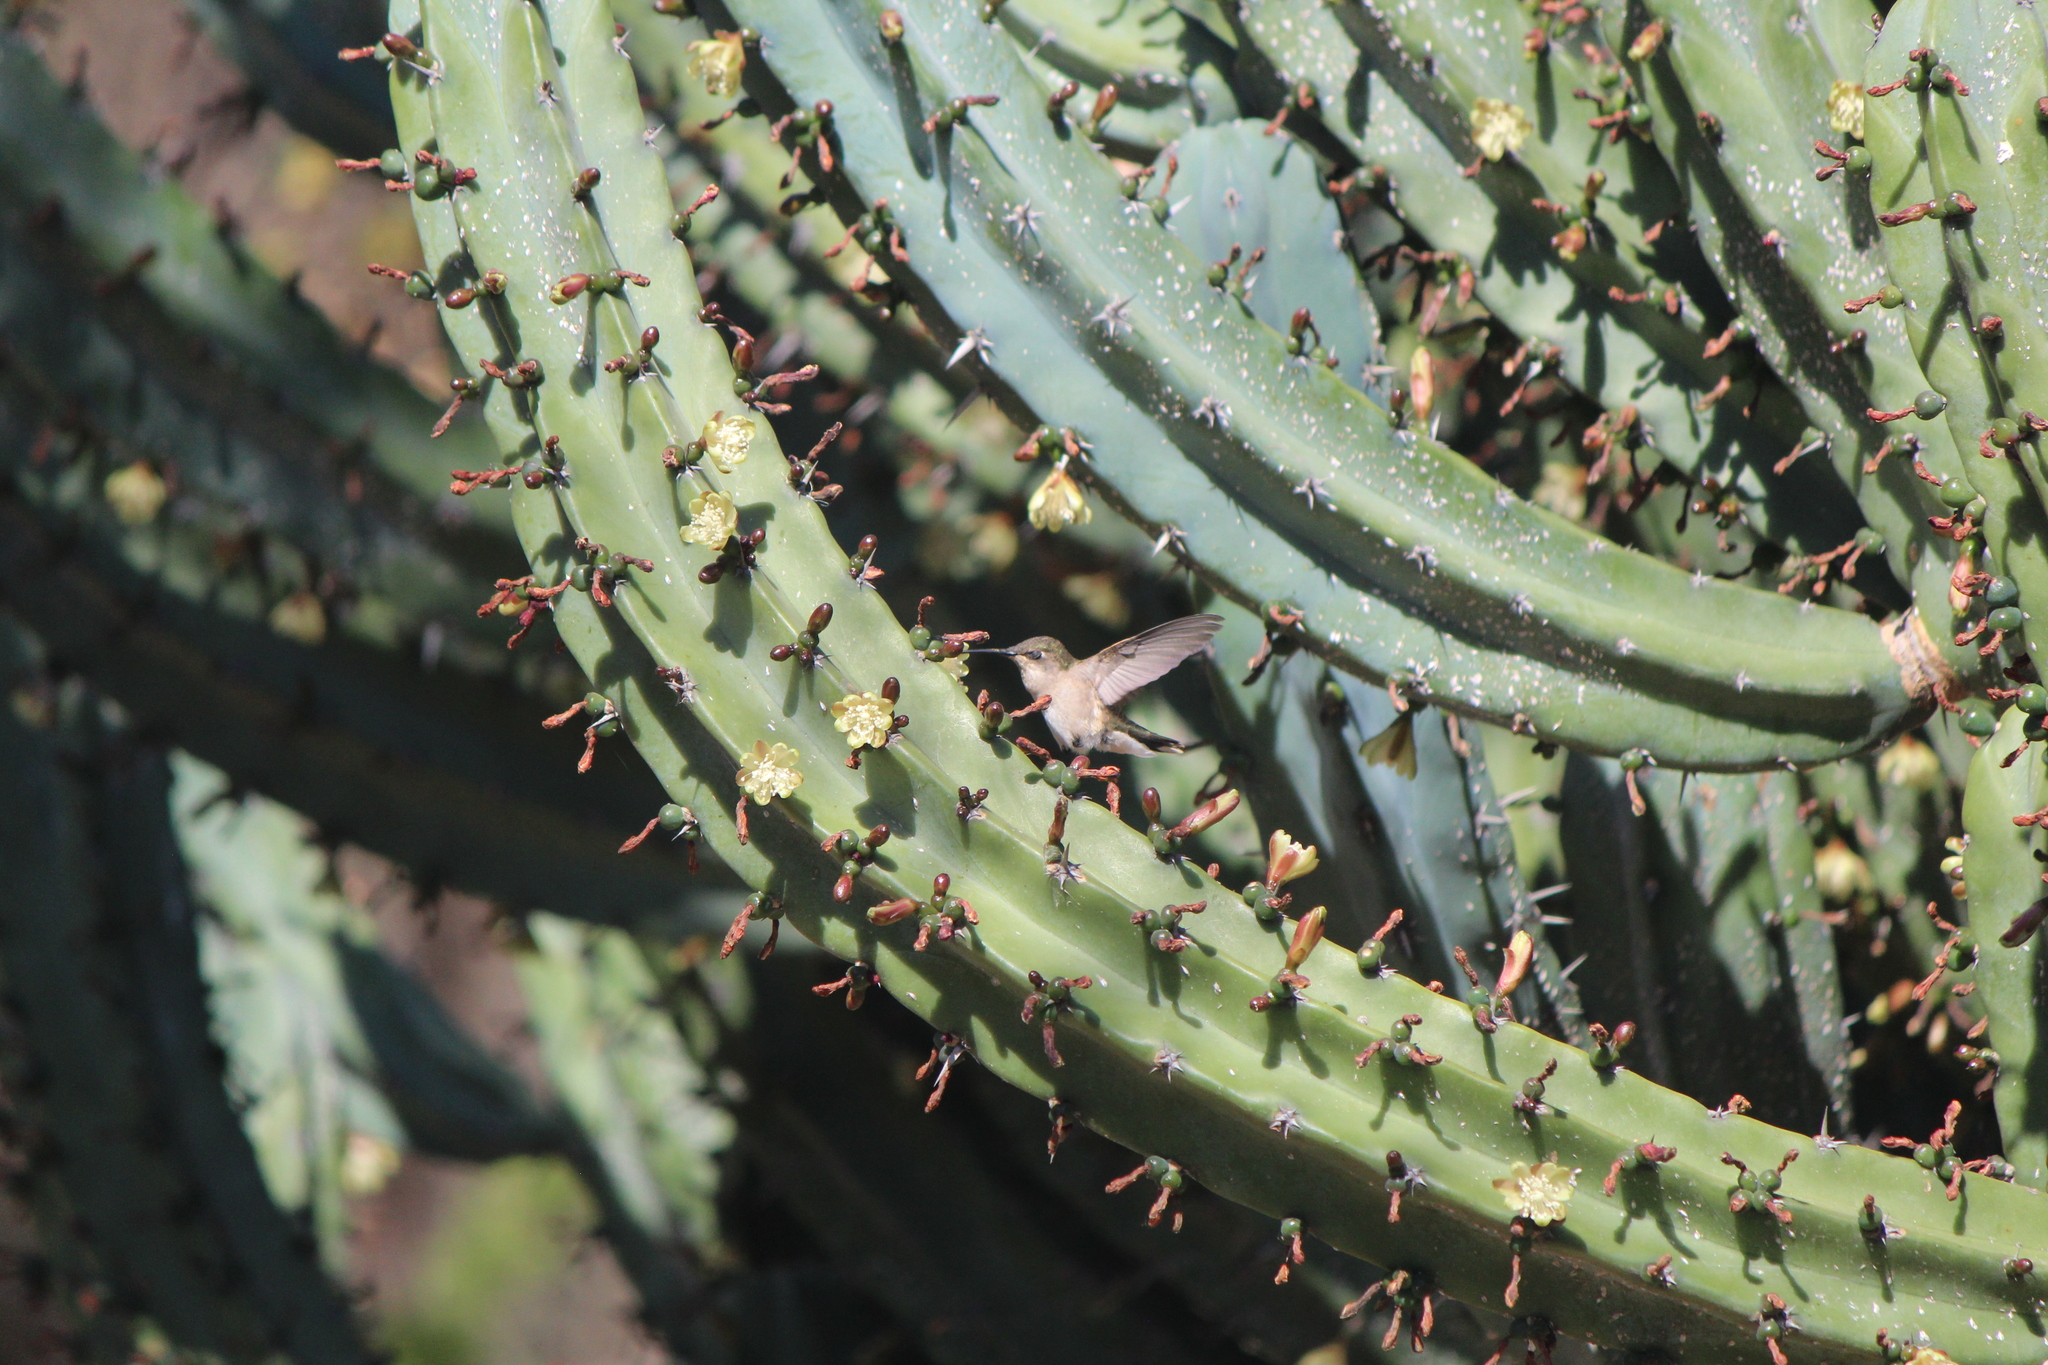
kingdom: Animalia
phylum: Chordata
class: Aves
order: Apodiformes
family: Trochilidae
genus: Archilochus
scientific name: Archilochus colubris
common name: Ruby-throated hummingbird
